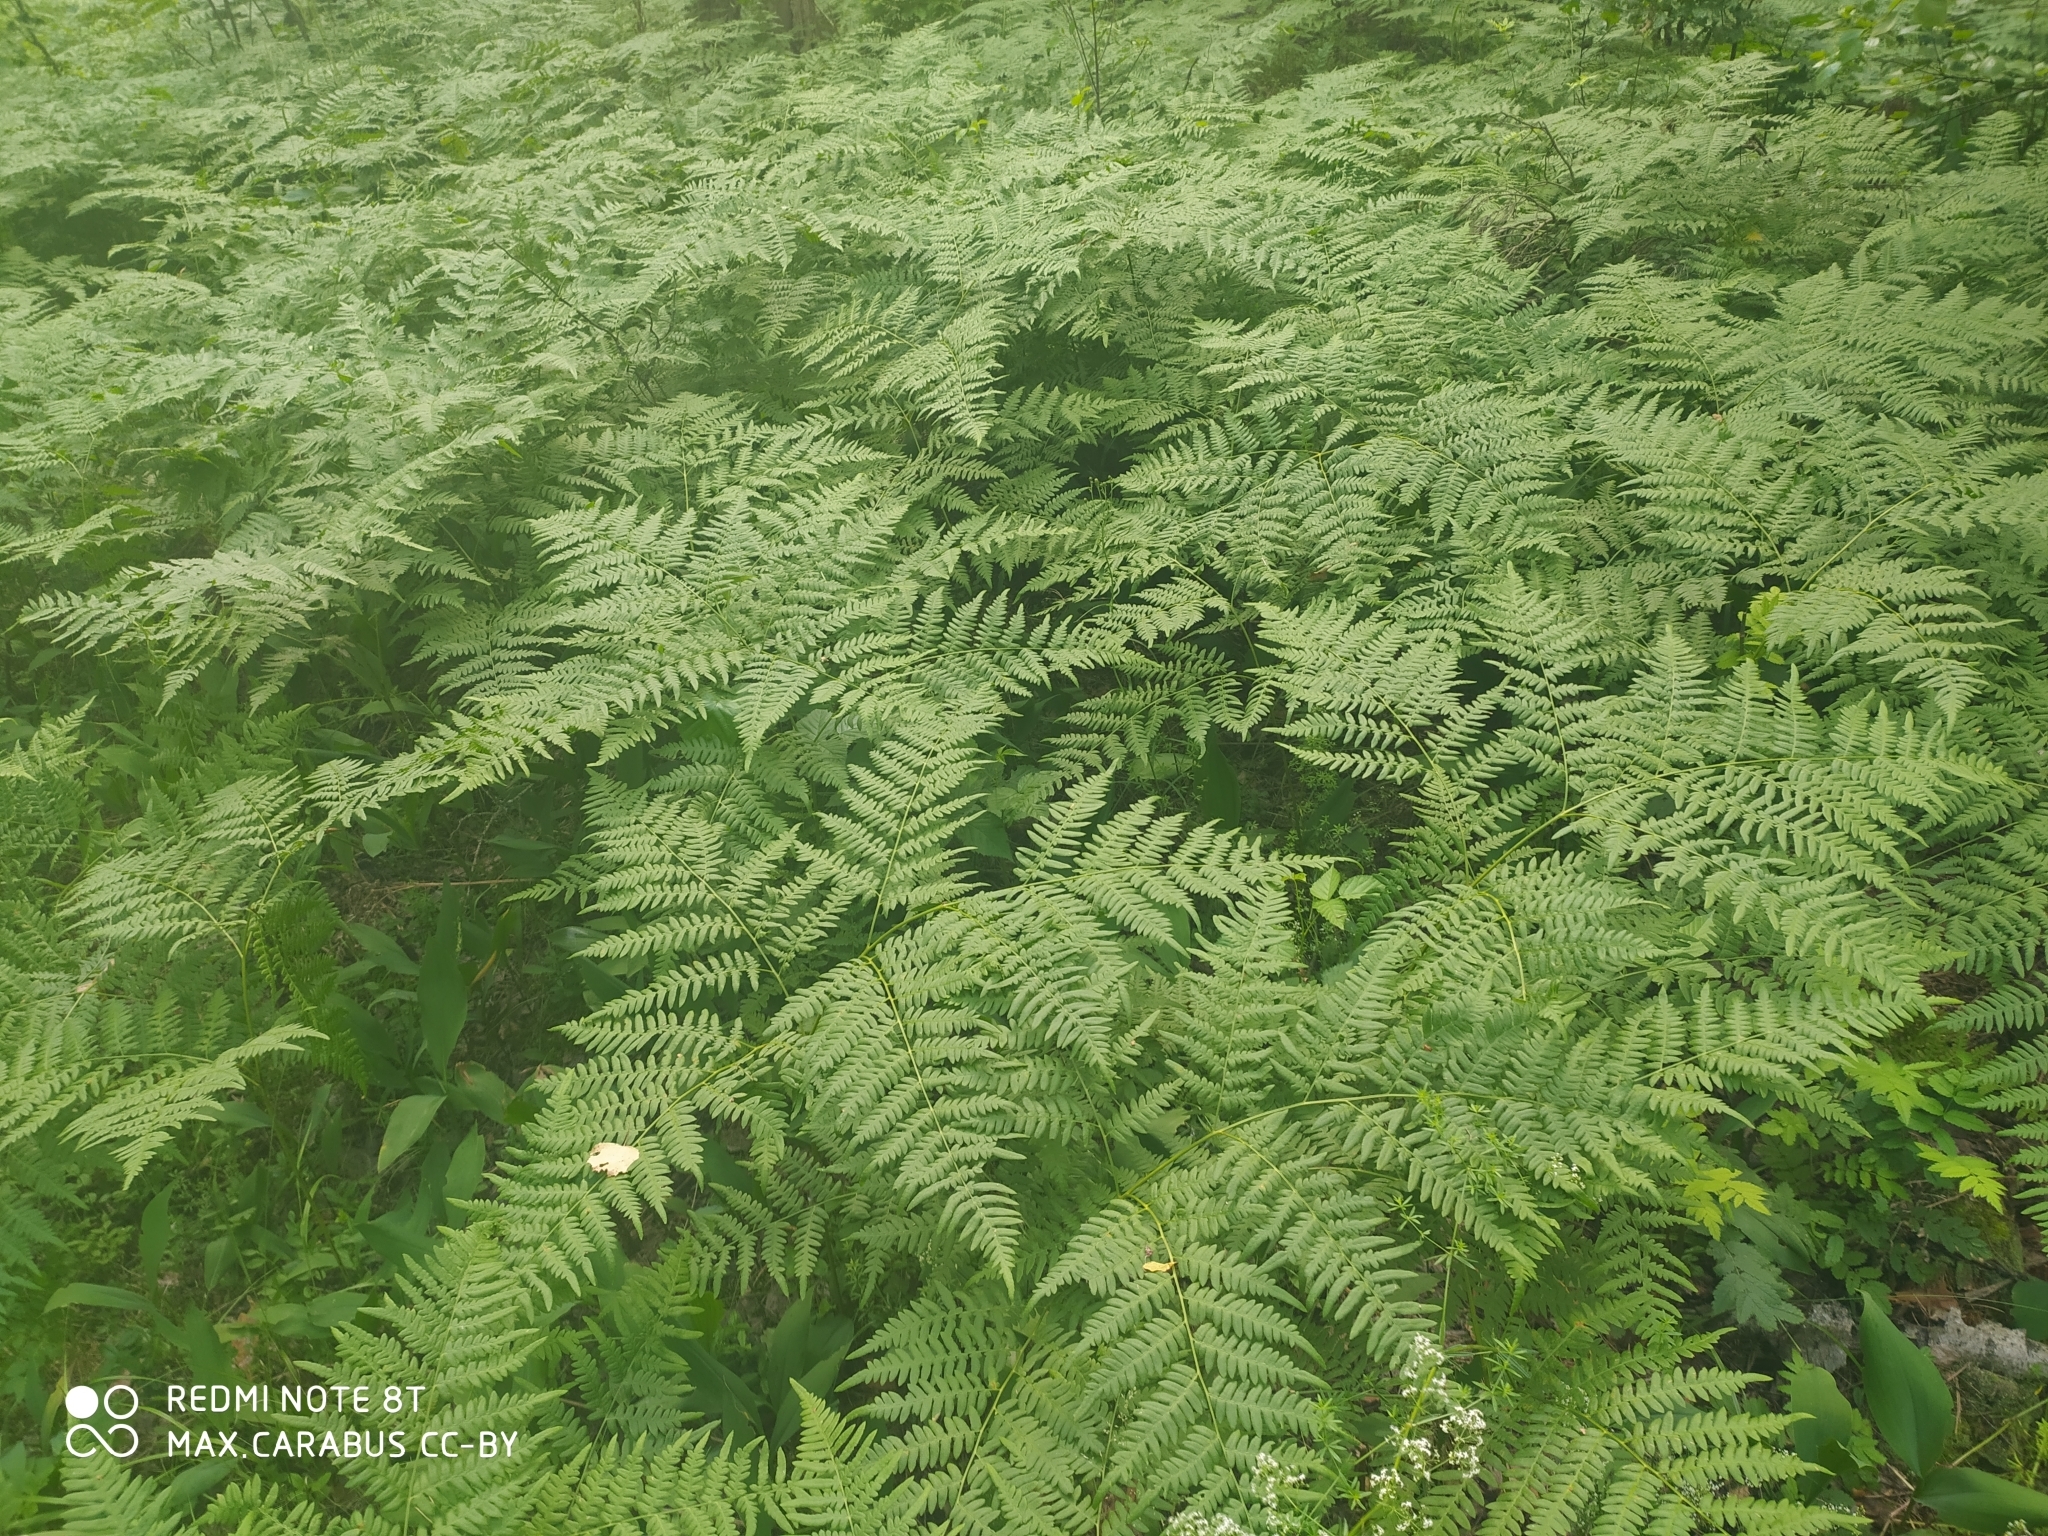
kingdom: Plantae
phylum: Tracheophyta
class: Polypodiopsida
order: Polypodiales
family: Dennstaedtiaceae
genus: Pteridium
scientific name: Pteridium aquilinum
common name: Bracken
